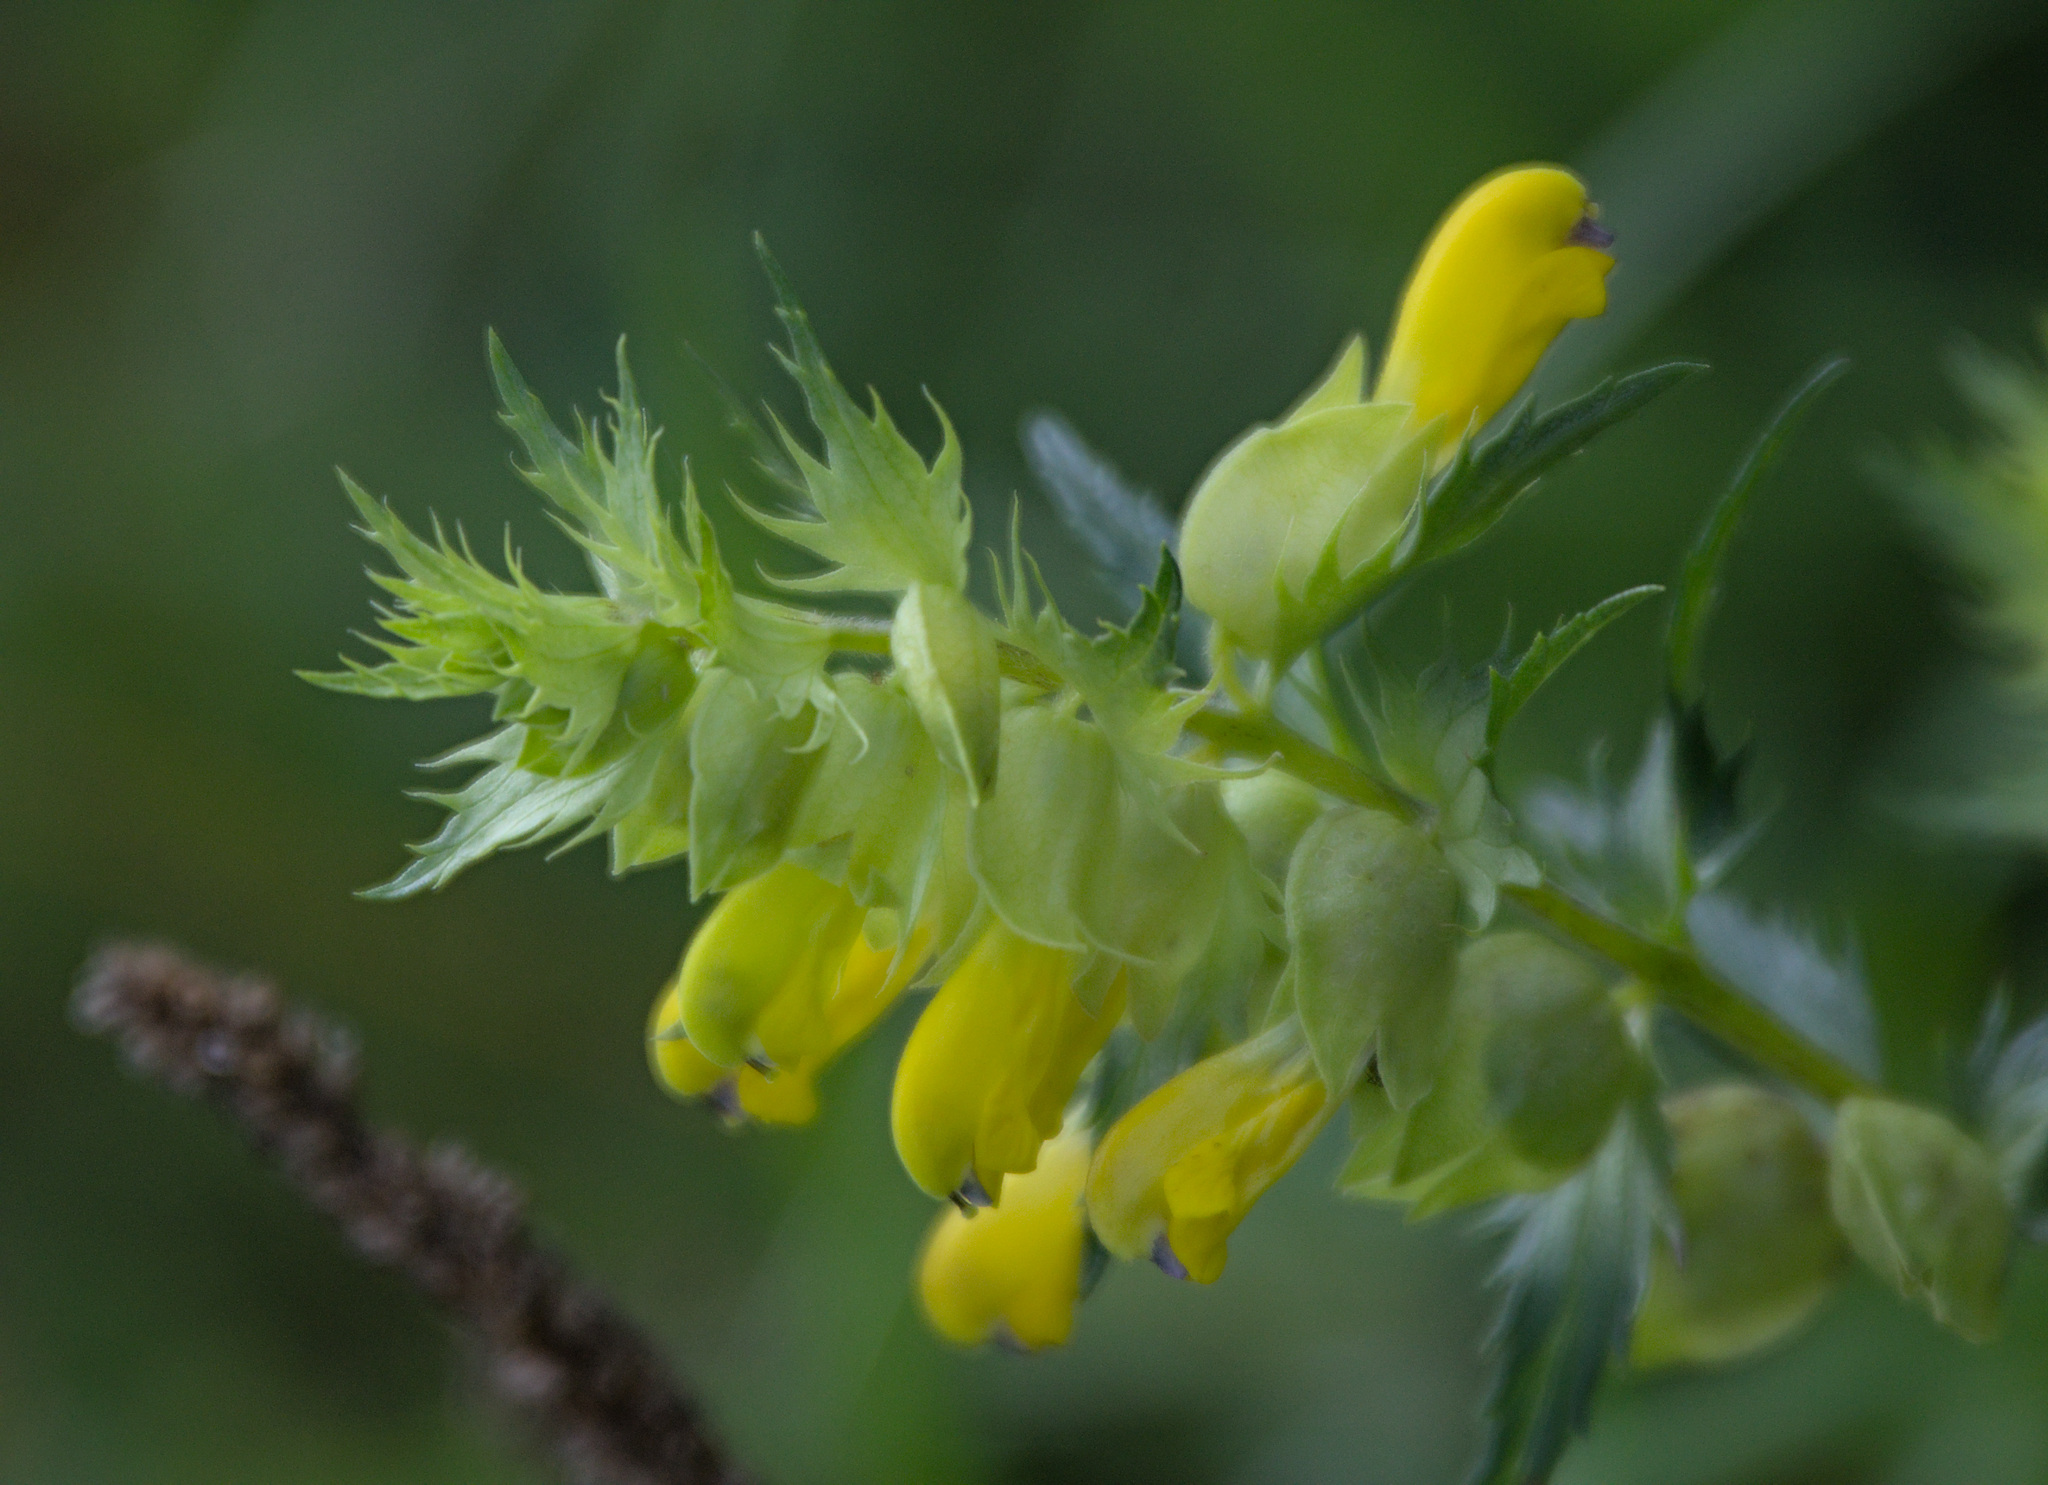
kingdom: Plantae
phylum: Tracheophyta
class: Magnoliopsida
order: Lamiales
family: Orobanchaceae
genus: Rhinanthus
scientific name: Rhinanthus serotinus
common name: Late-flowering yellow rattle
